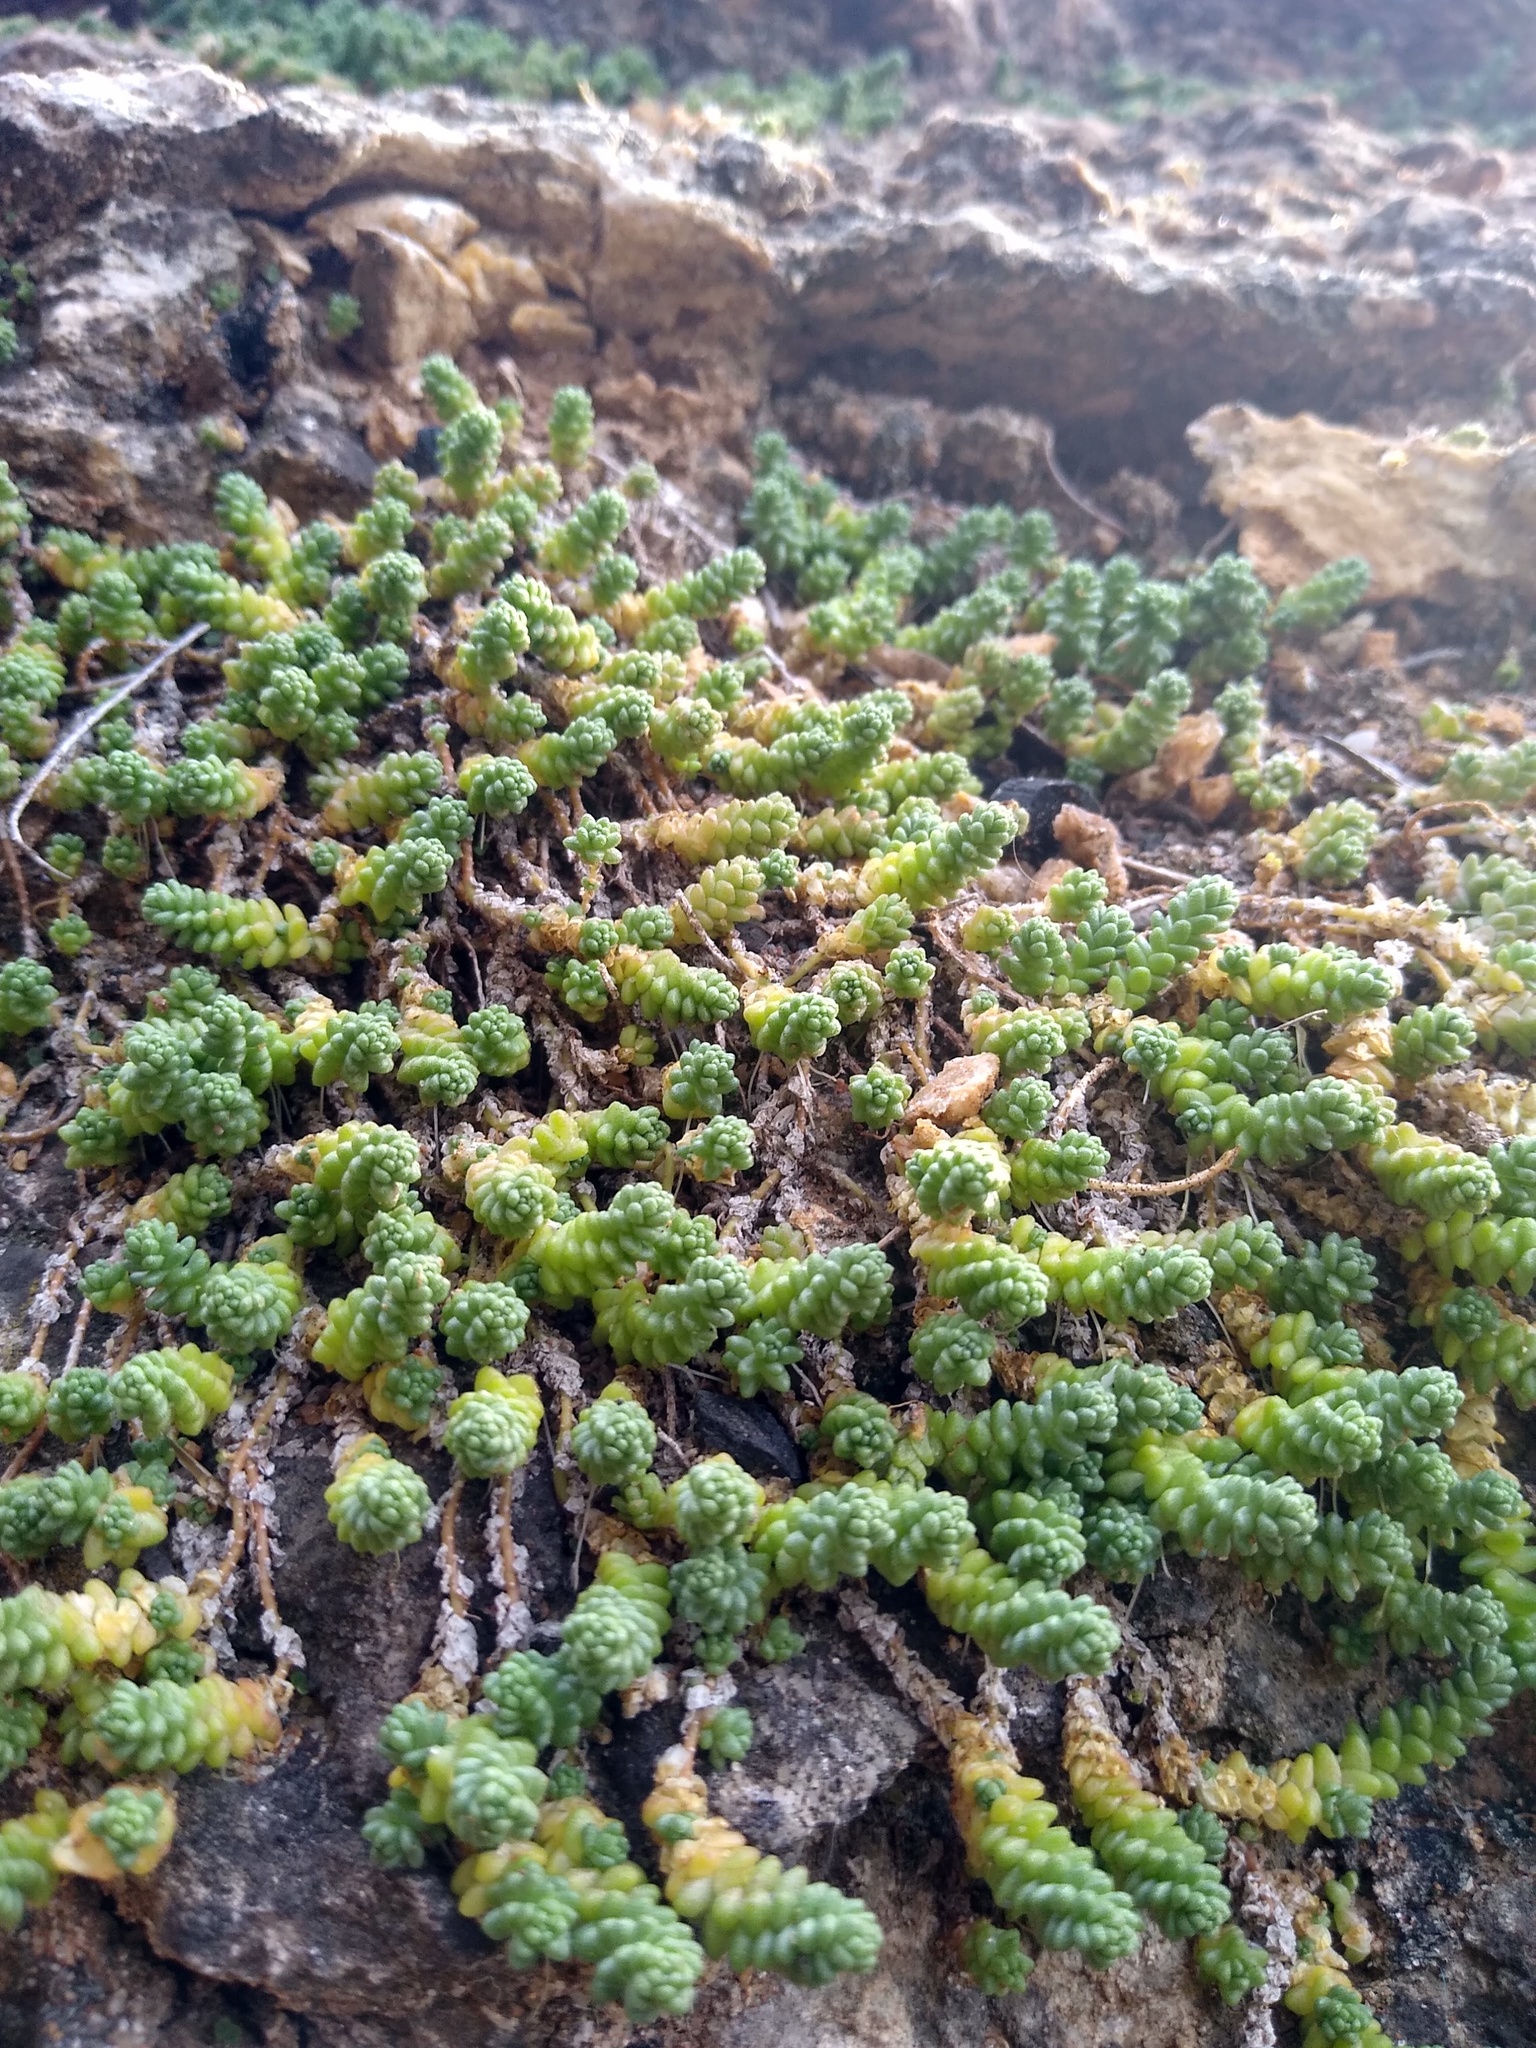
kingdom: Plantae
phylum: Tracheophyta
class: Magnoliopsida
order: Saxifragales
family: Crassulaceae
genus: Sedum
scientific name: Sedum acre
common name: Biting stonecrop
